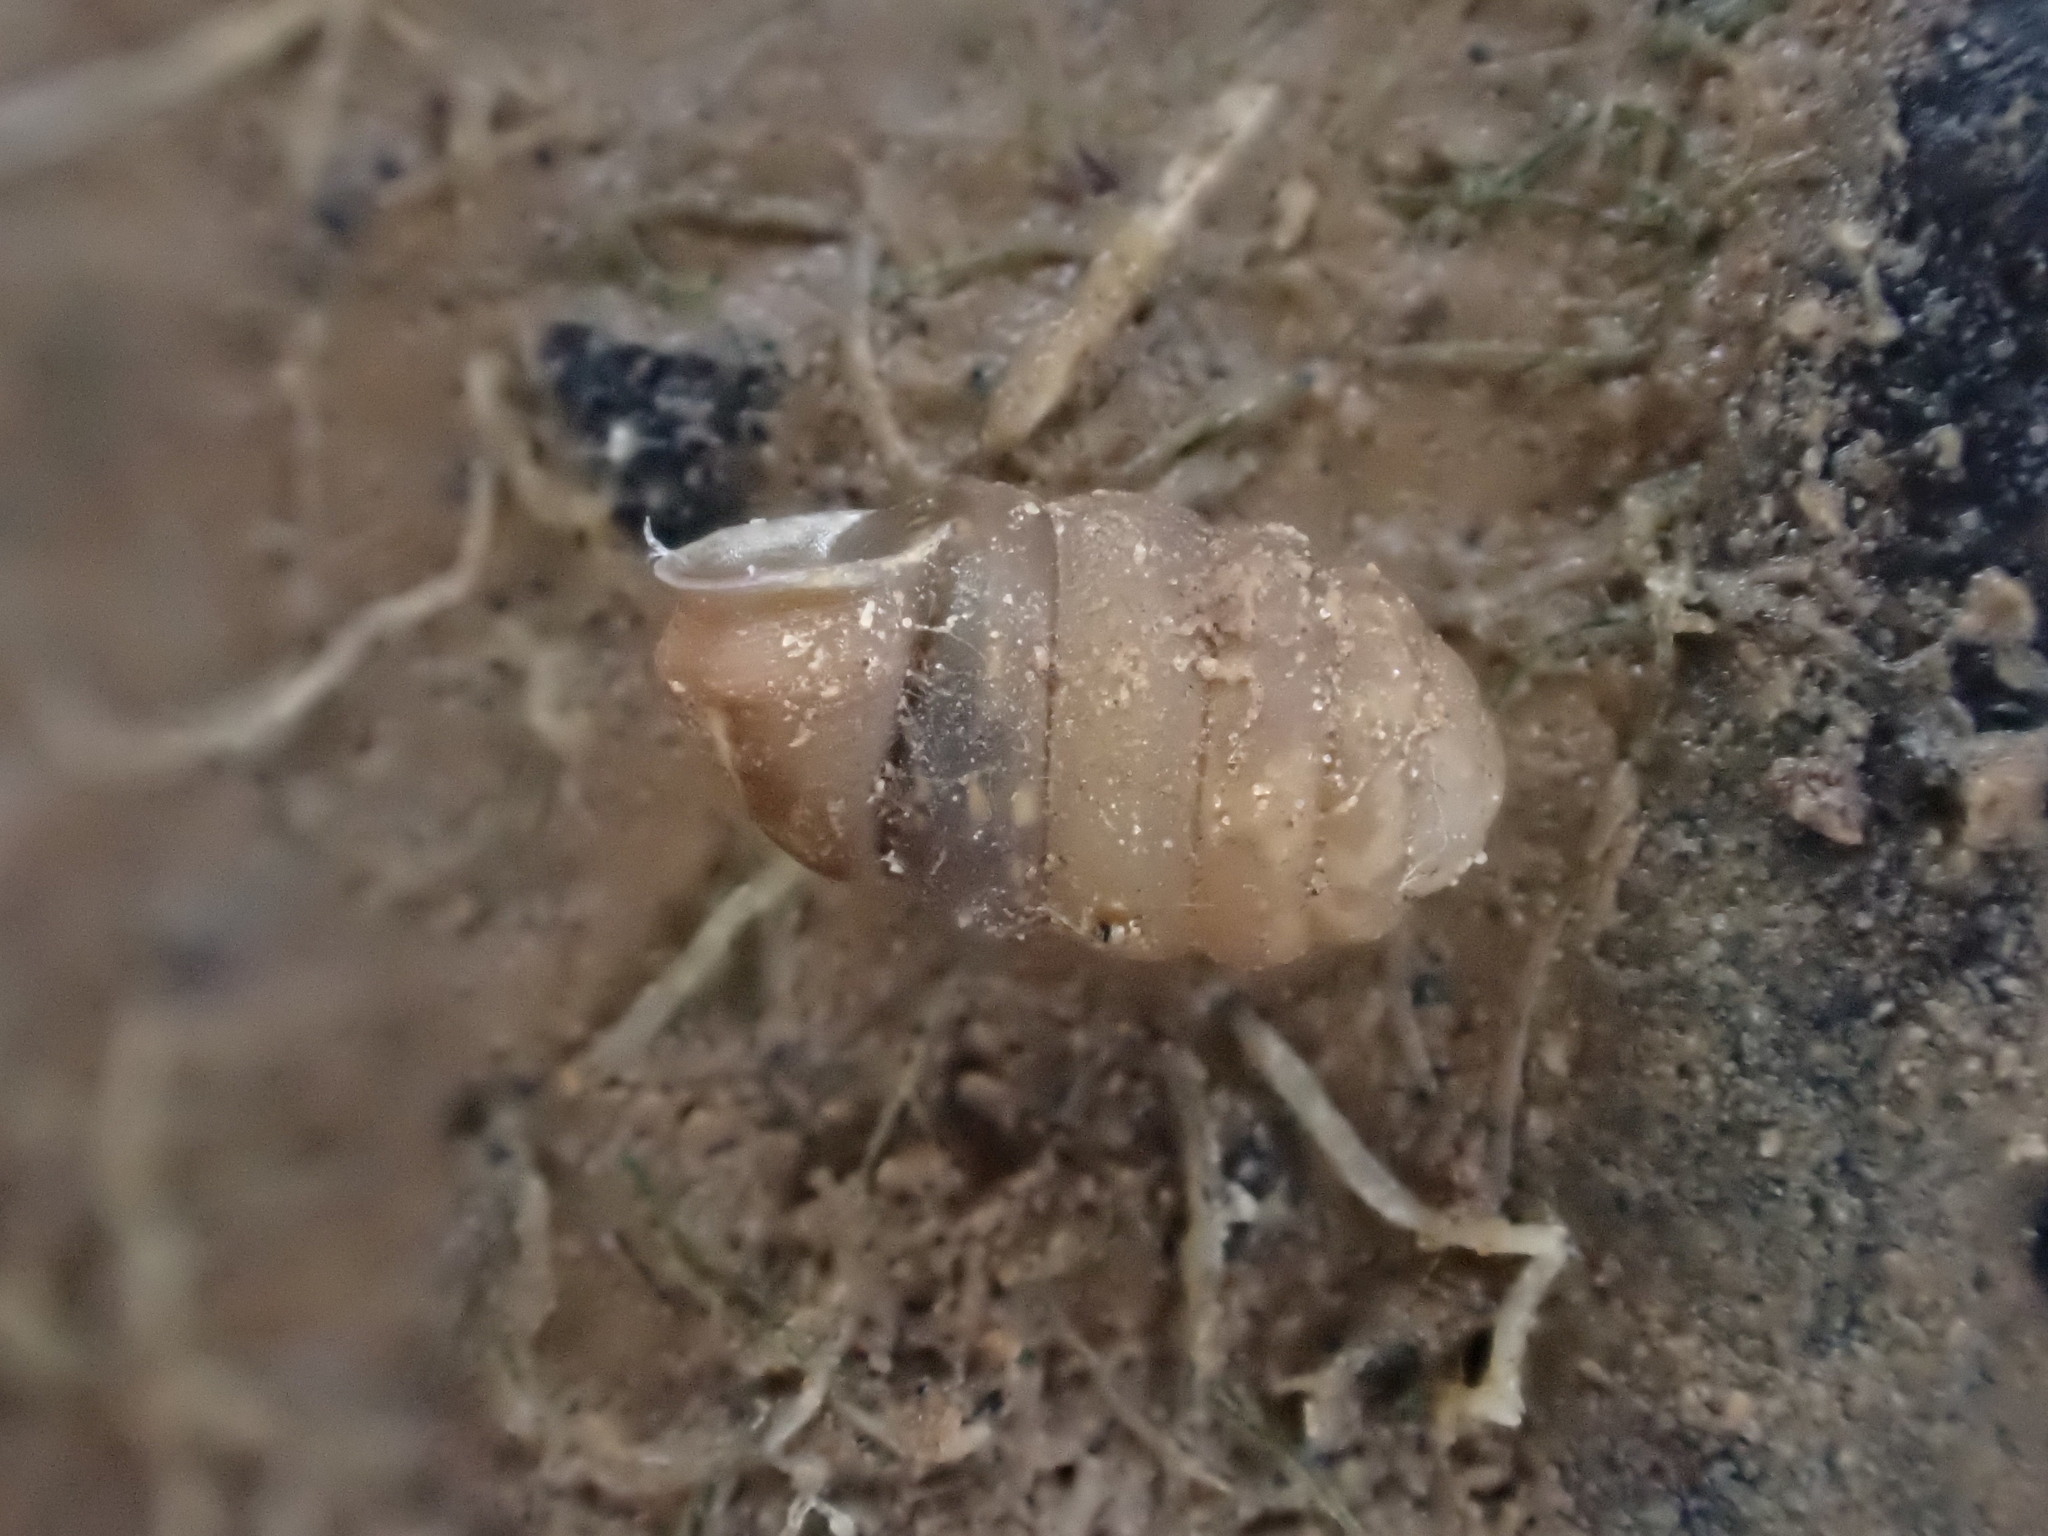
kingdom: Animalia
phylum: Mollusca
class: Gastropoda
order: Stylommatophora
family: Pupillidae
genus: Pupilla
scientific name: Pupilla muscorum
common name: Moss chrysalis snail
